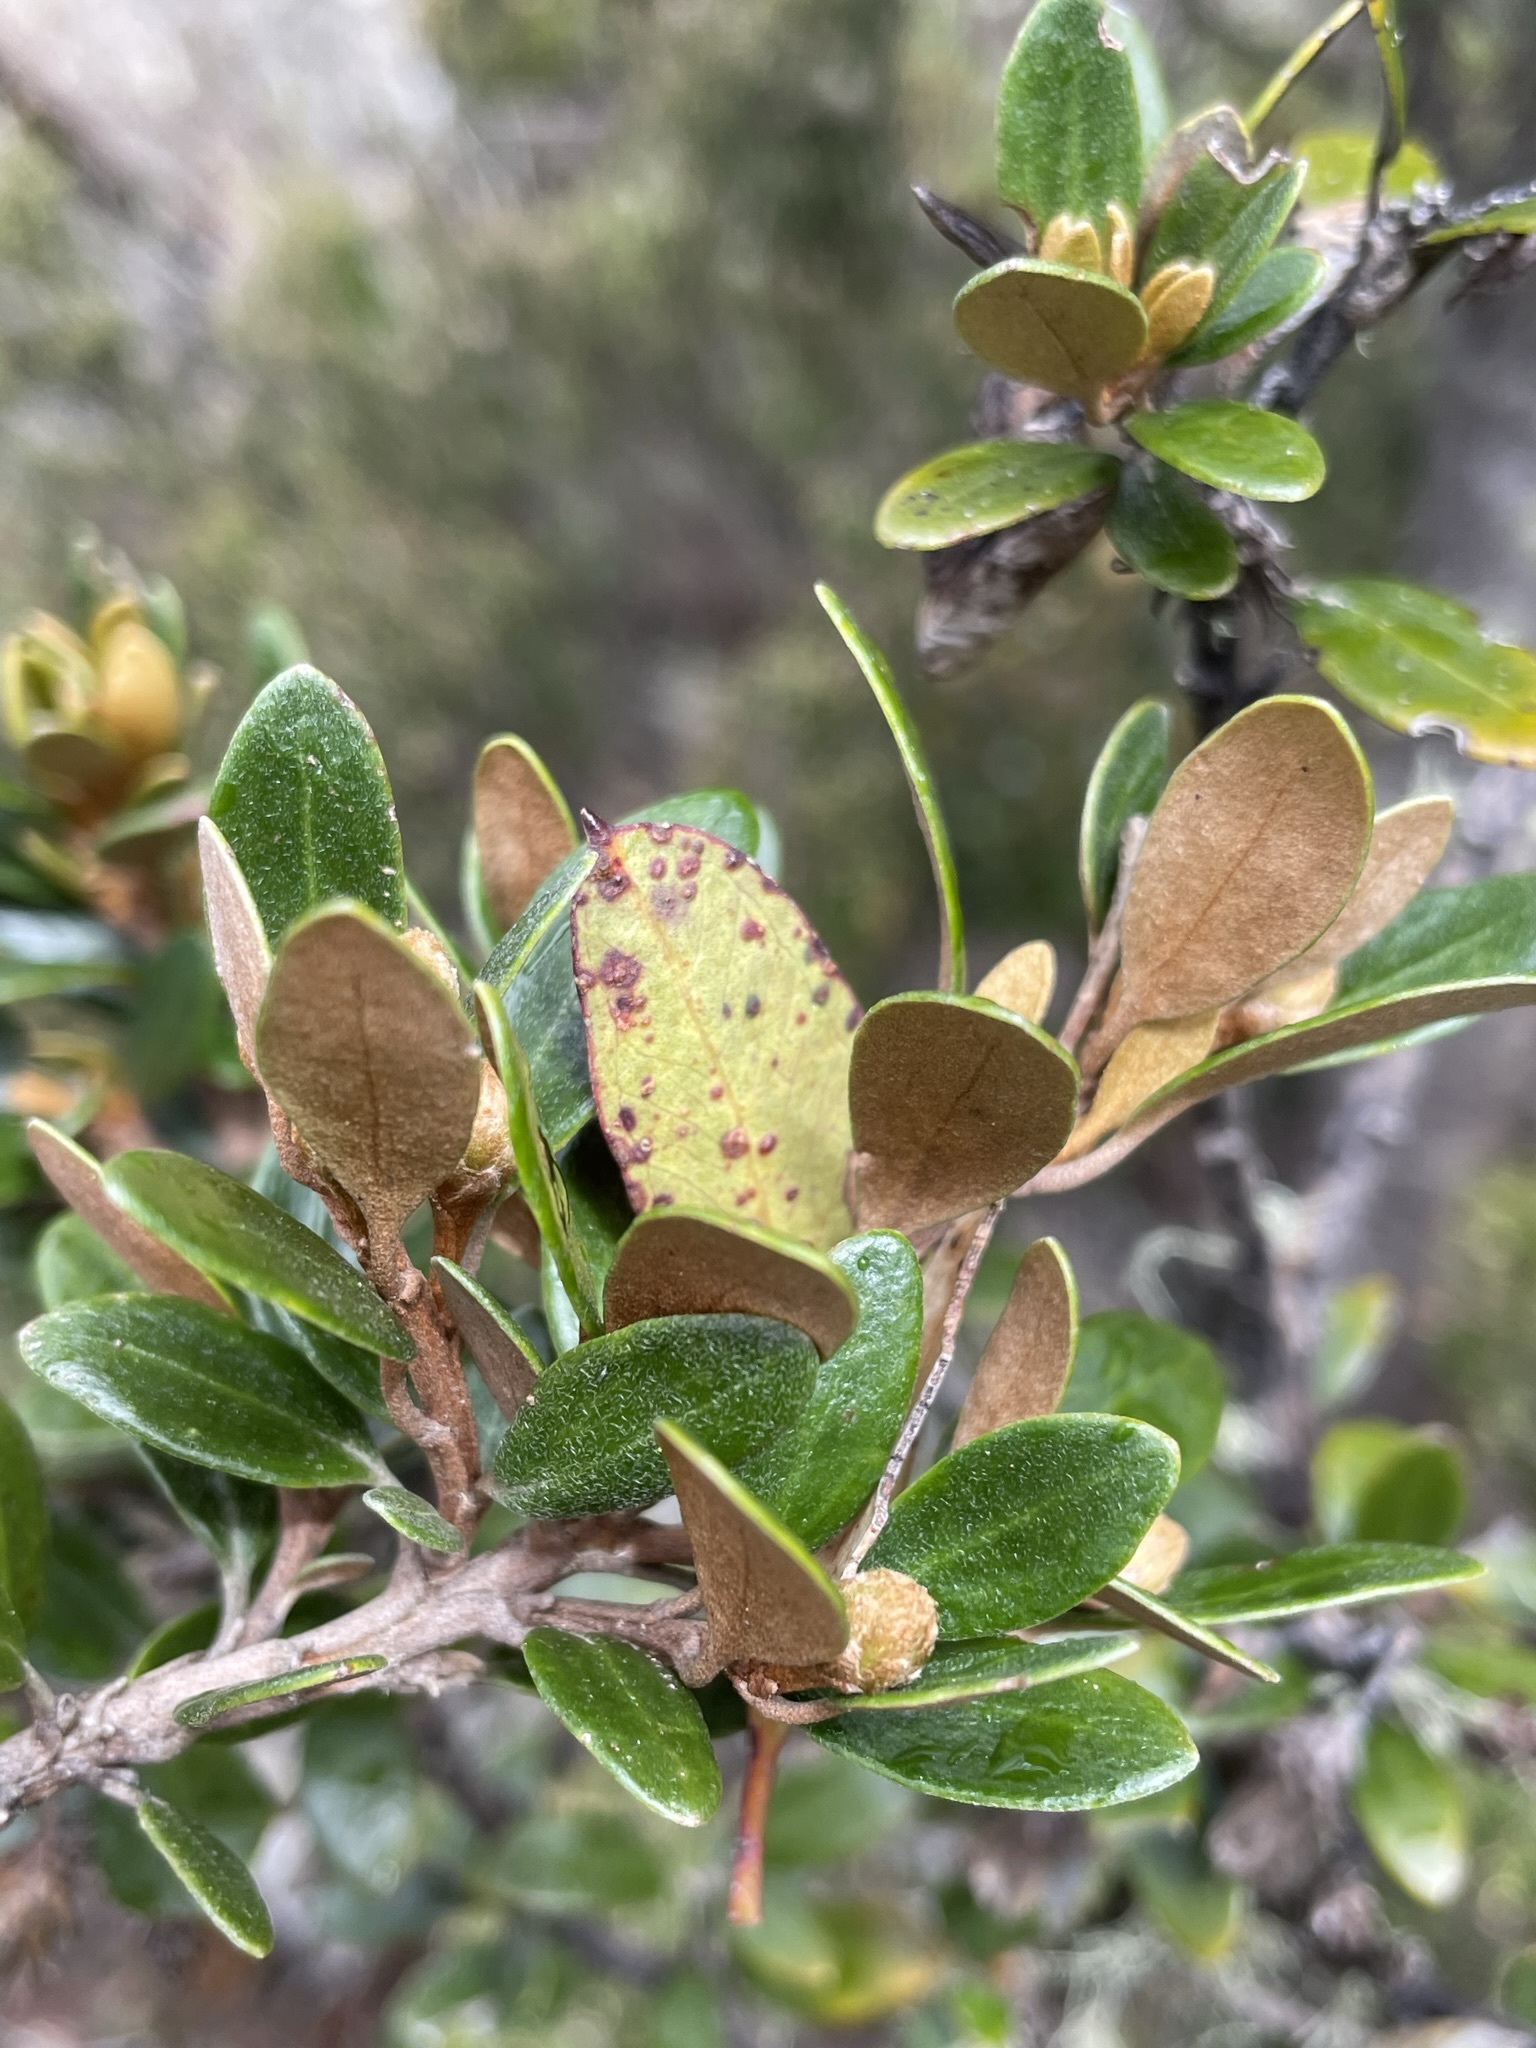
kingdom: Plantae
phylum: Tracheophyta
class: Magnoliopsida
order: Asterales
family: Asteraceae
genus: Olearia
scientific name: Olearia tasmanica
